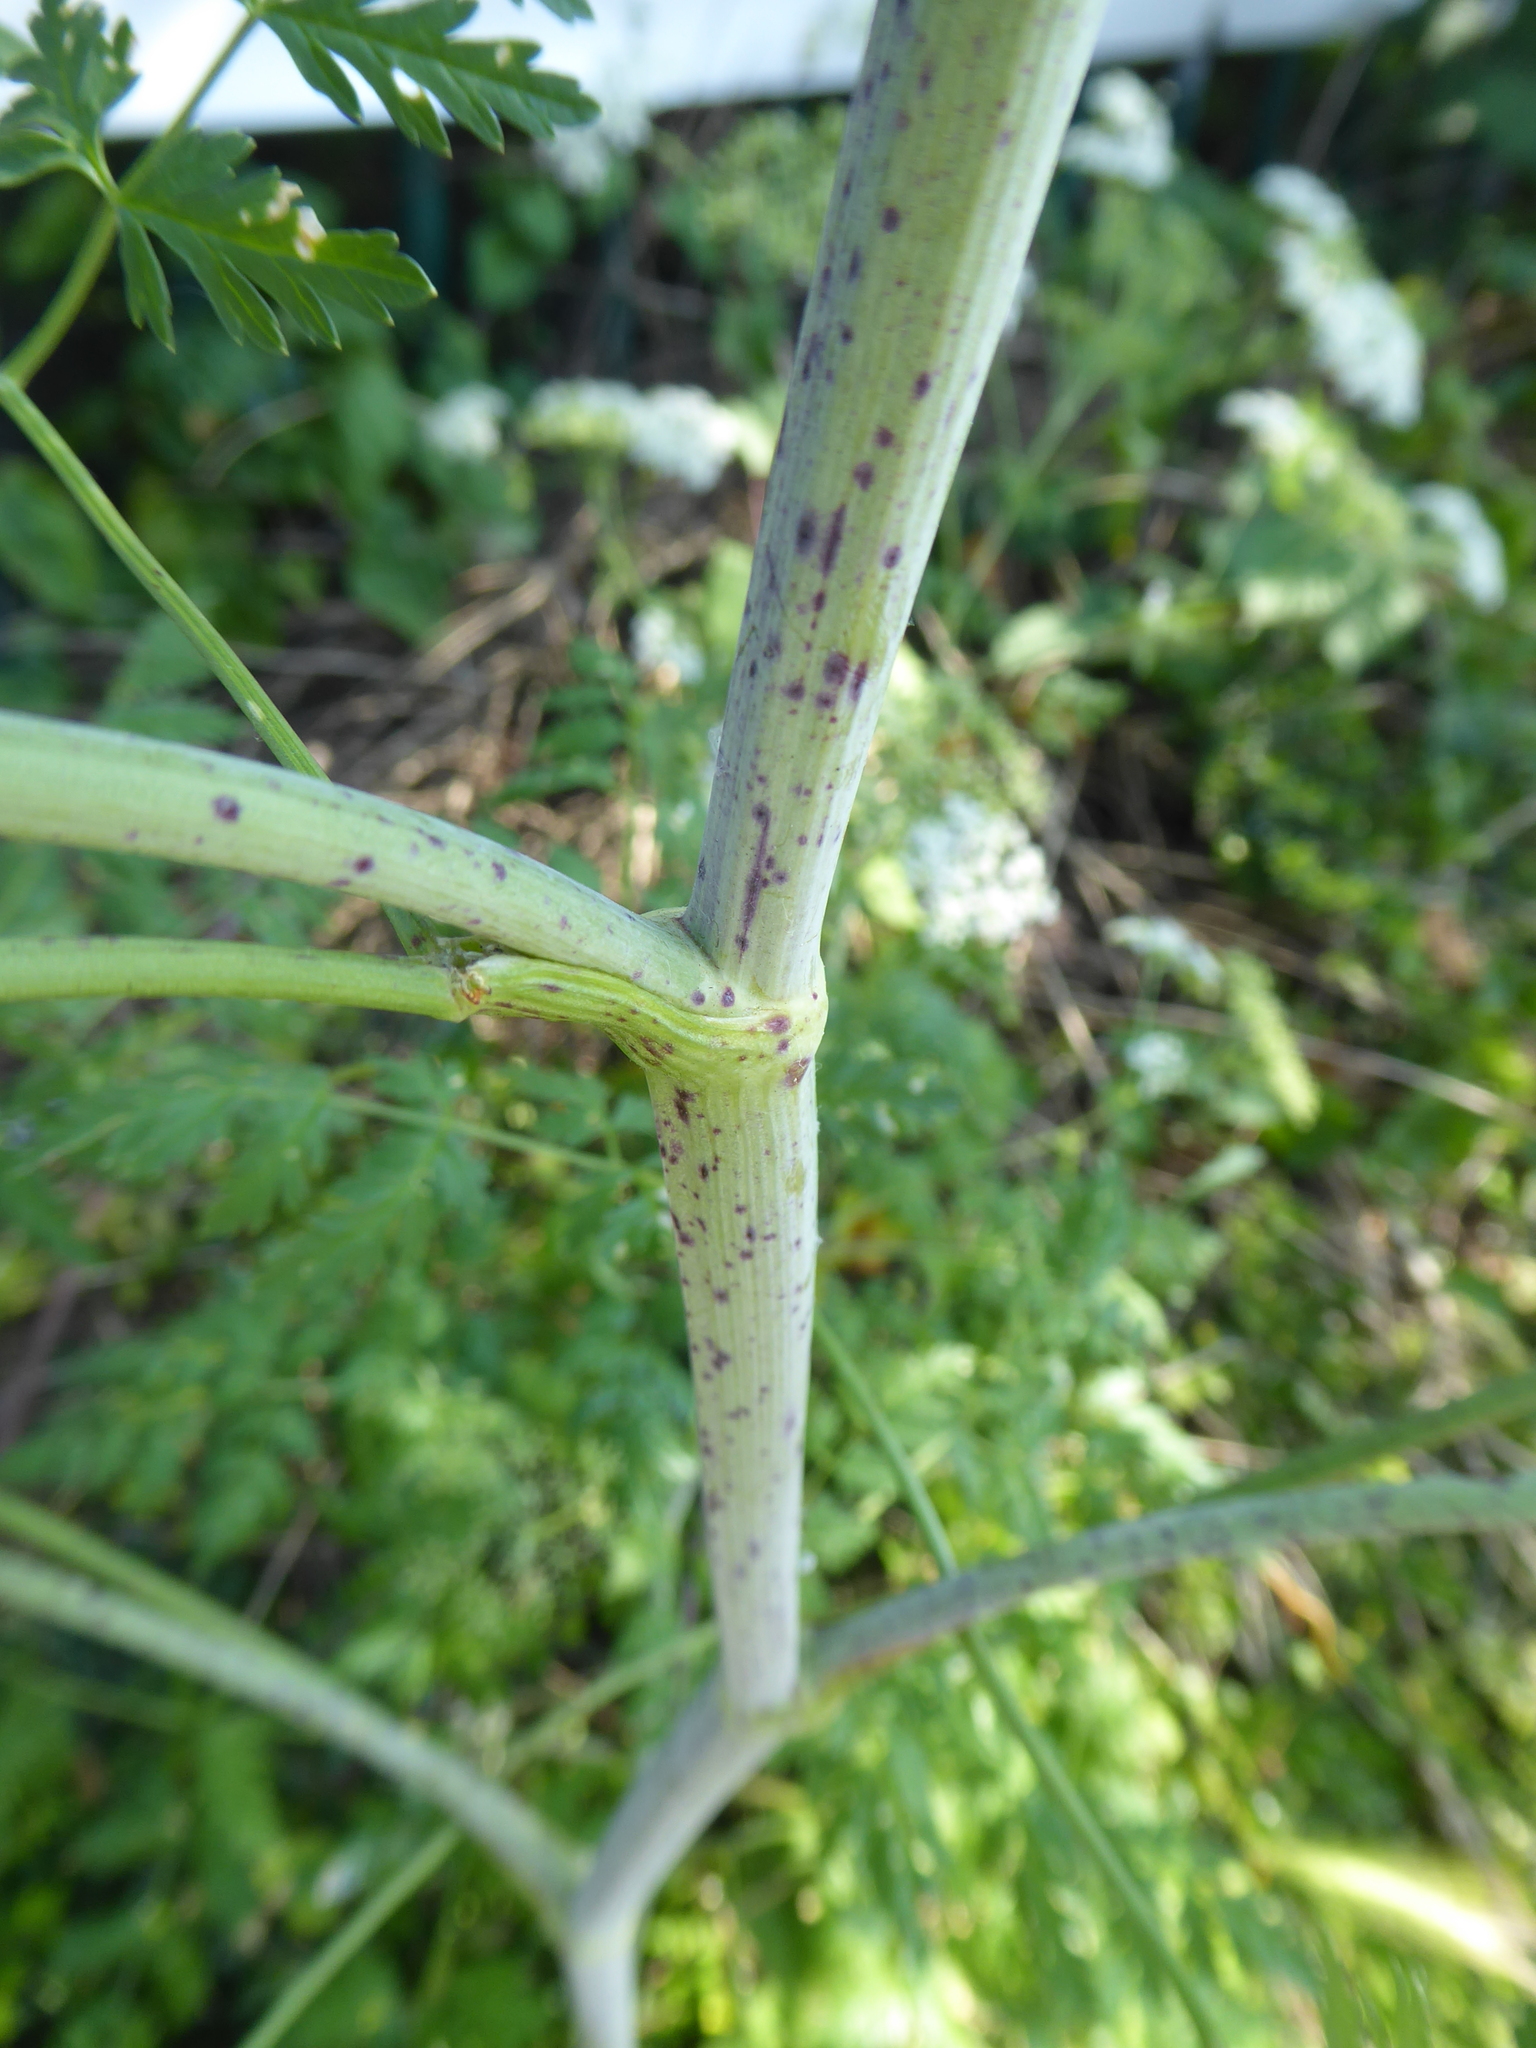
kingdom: Plantae
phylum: Tracheophyta
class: Magnoliopsida
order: Apiales
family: Apiaceae
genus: Conium
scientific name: Conium maculatum
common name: Hemlock
